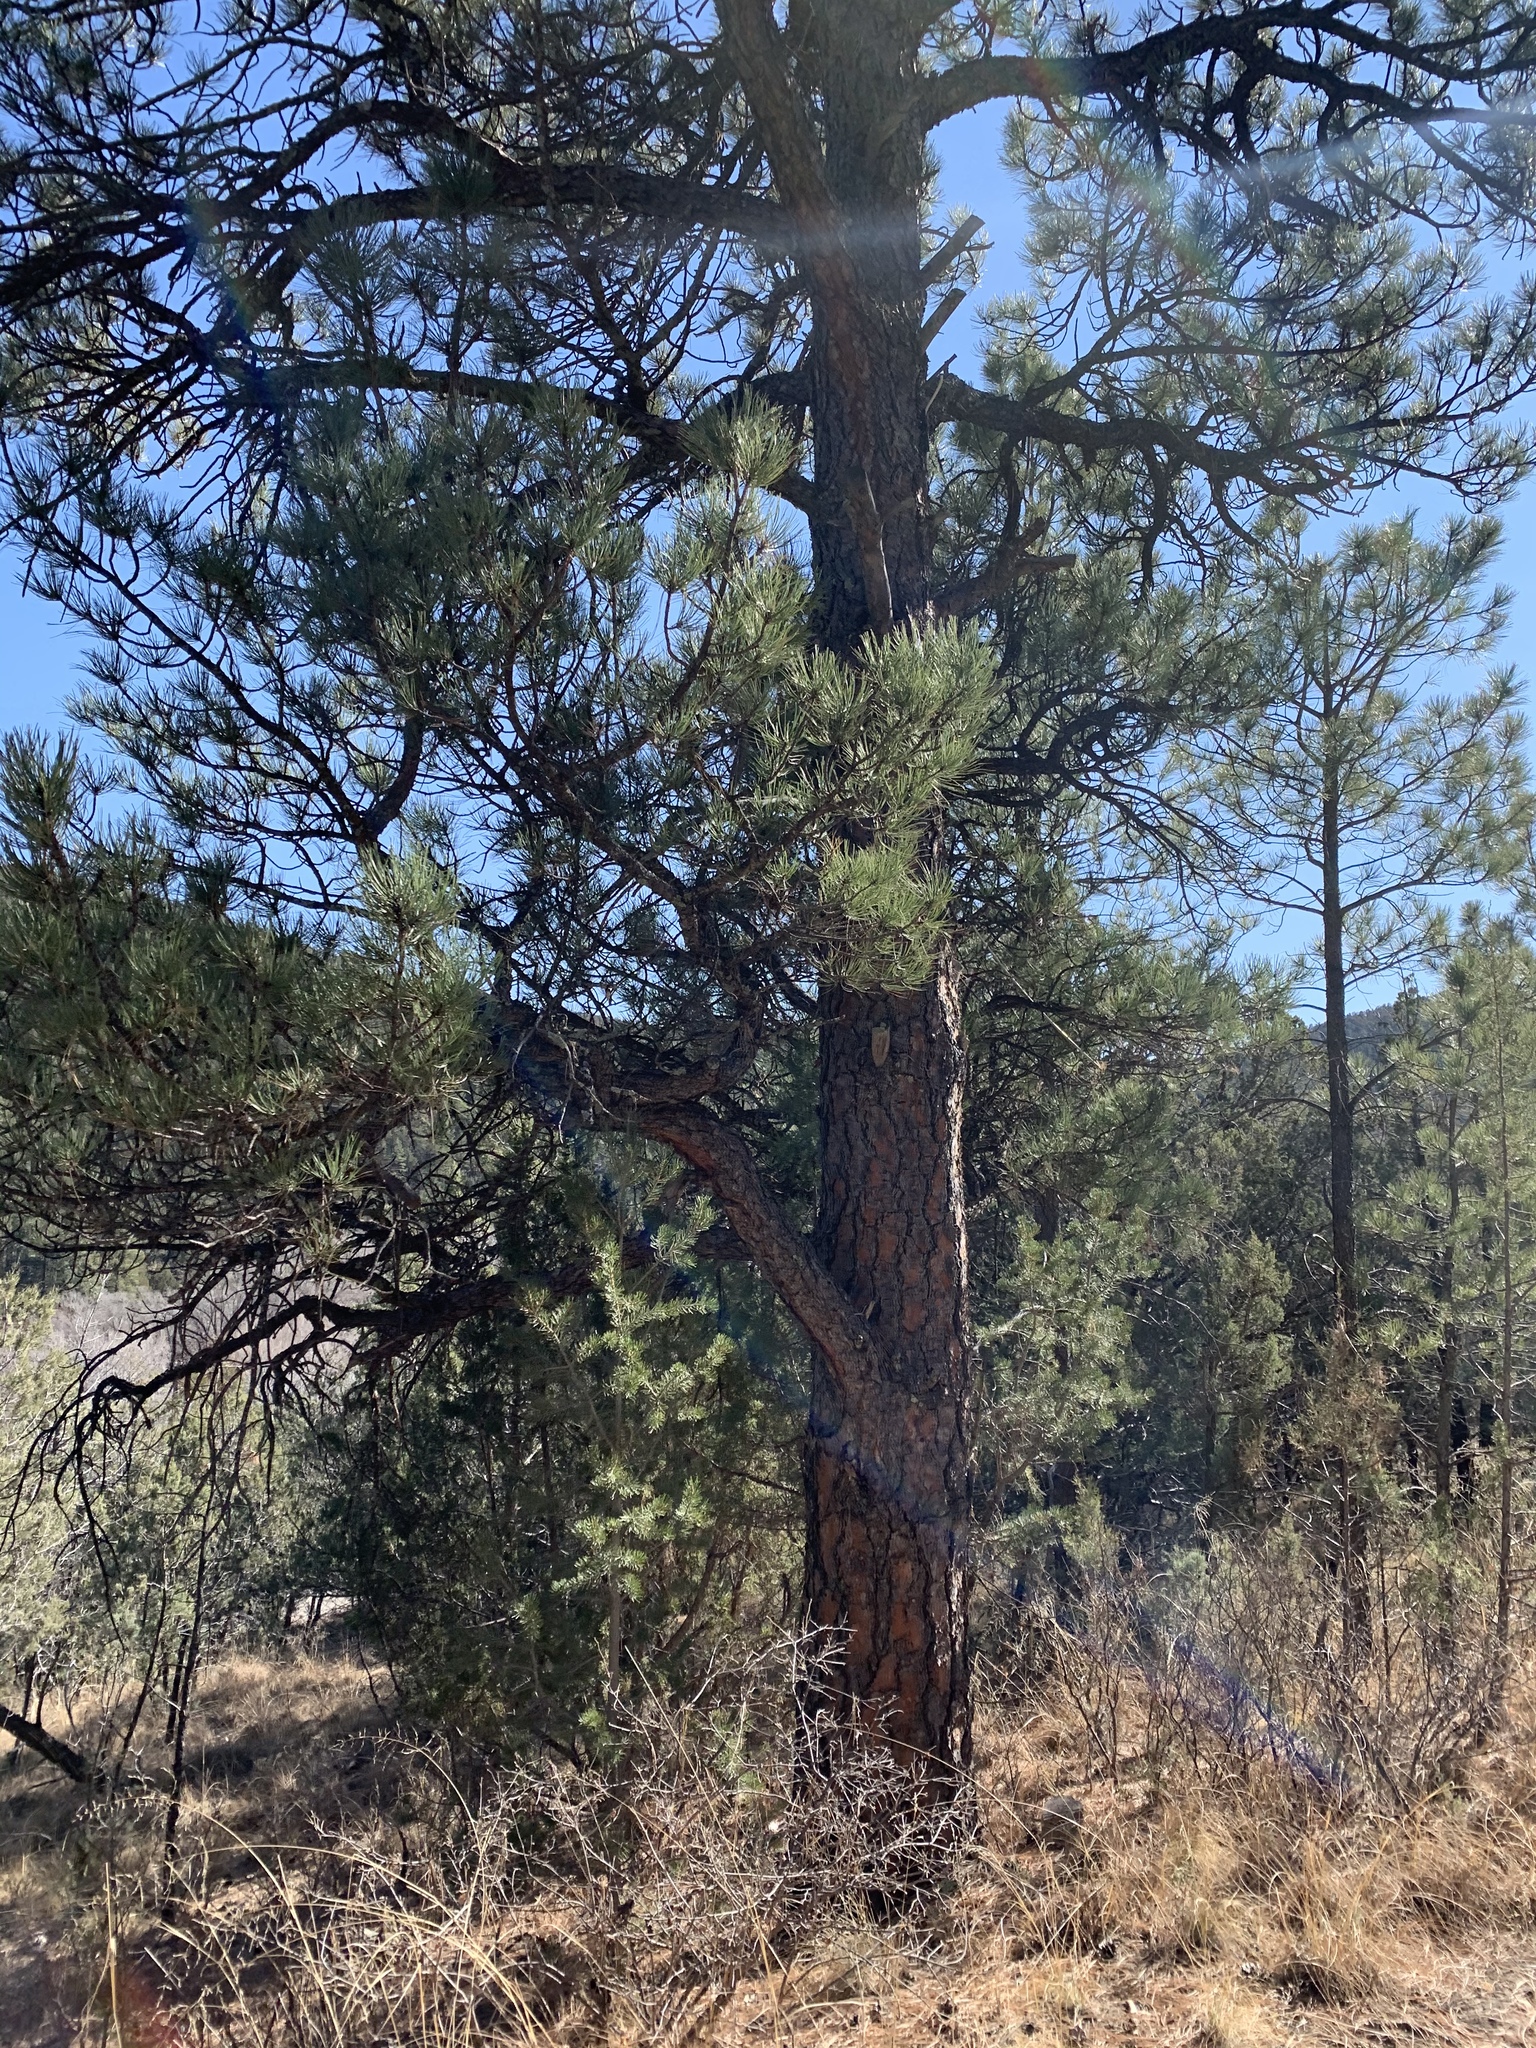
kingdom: Plantae
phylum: Tracheophyta
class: Pinopsida
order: Pinales
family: Pinaceae
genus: Pinus
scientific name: Pinus ponderosa
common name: Western yellow-pine
